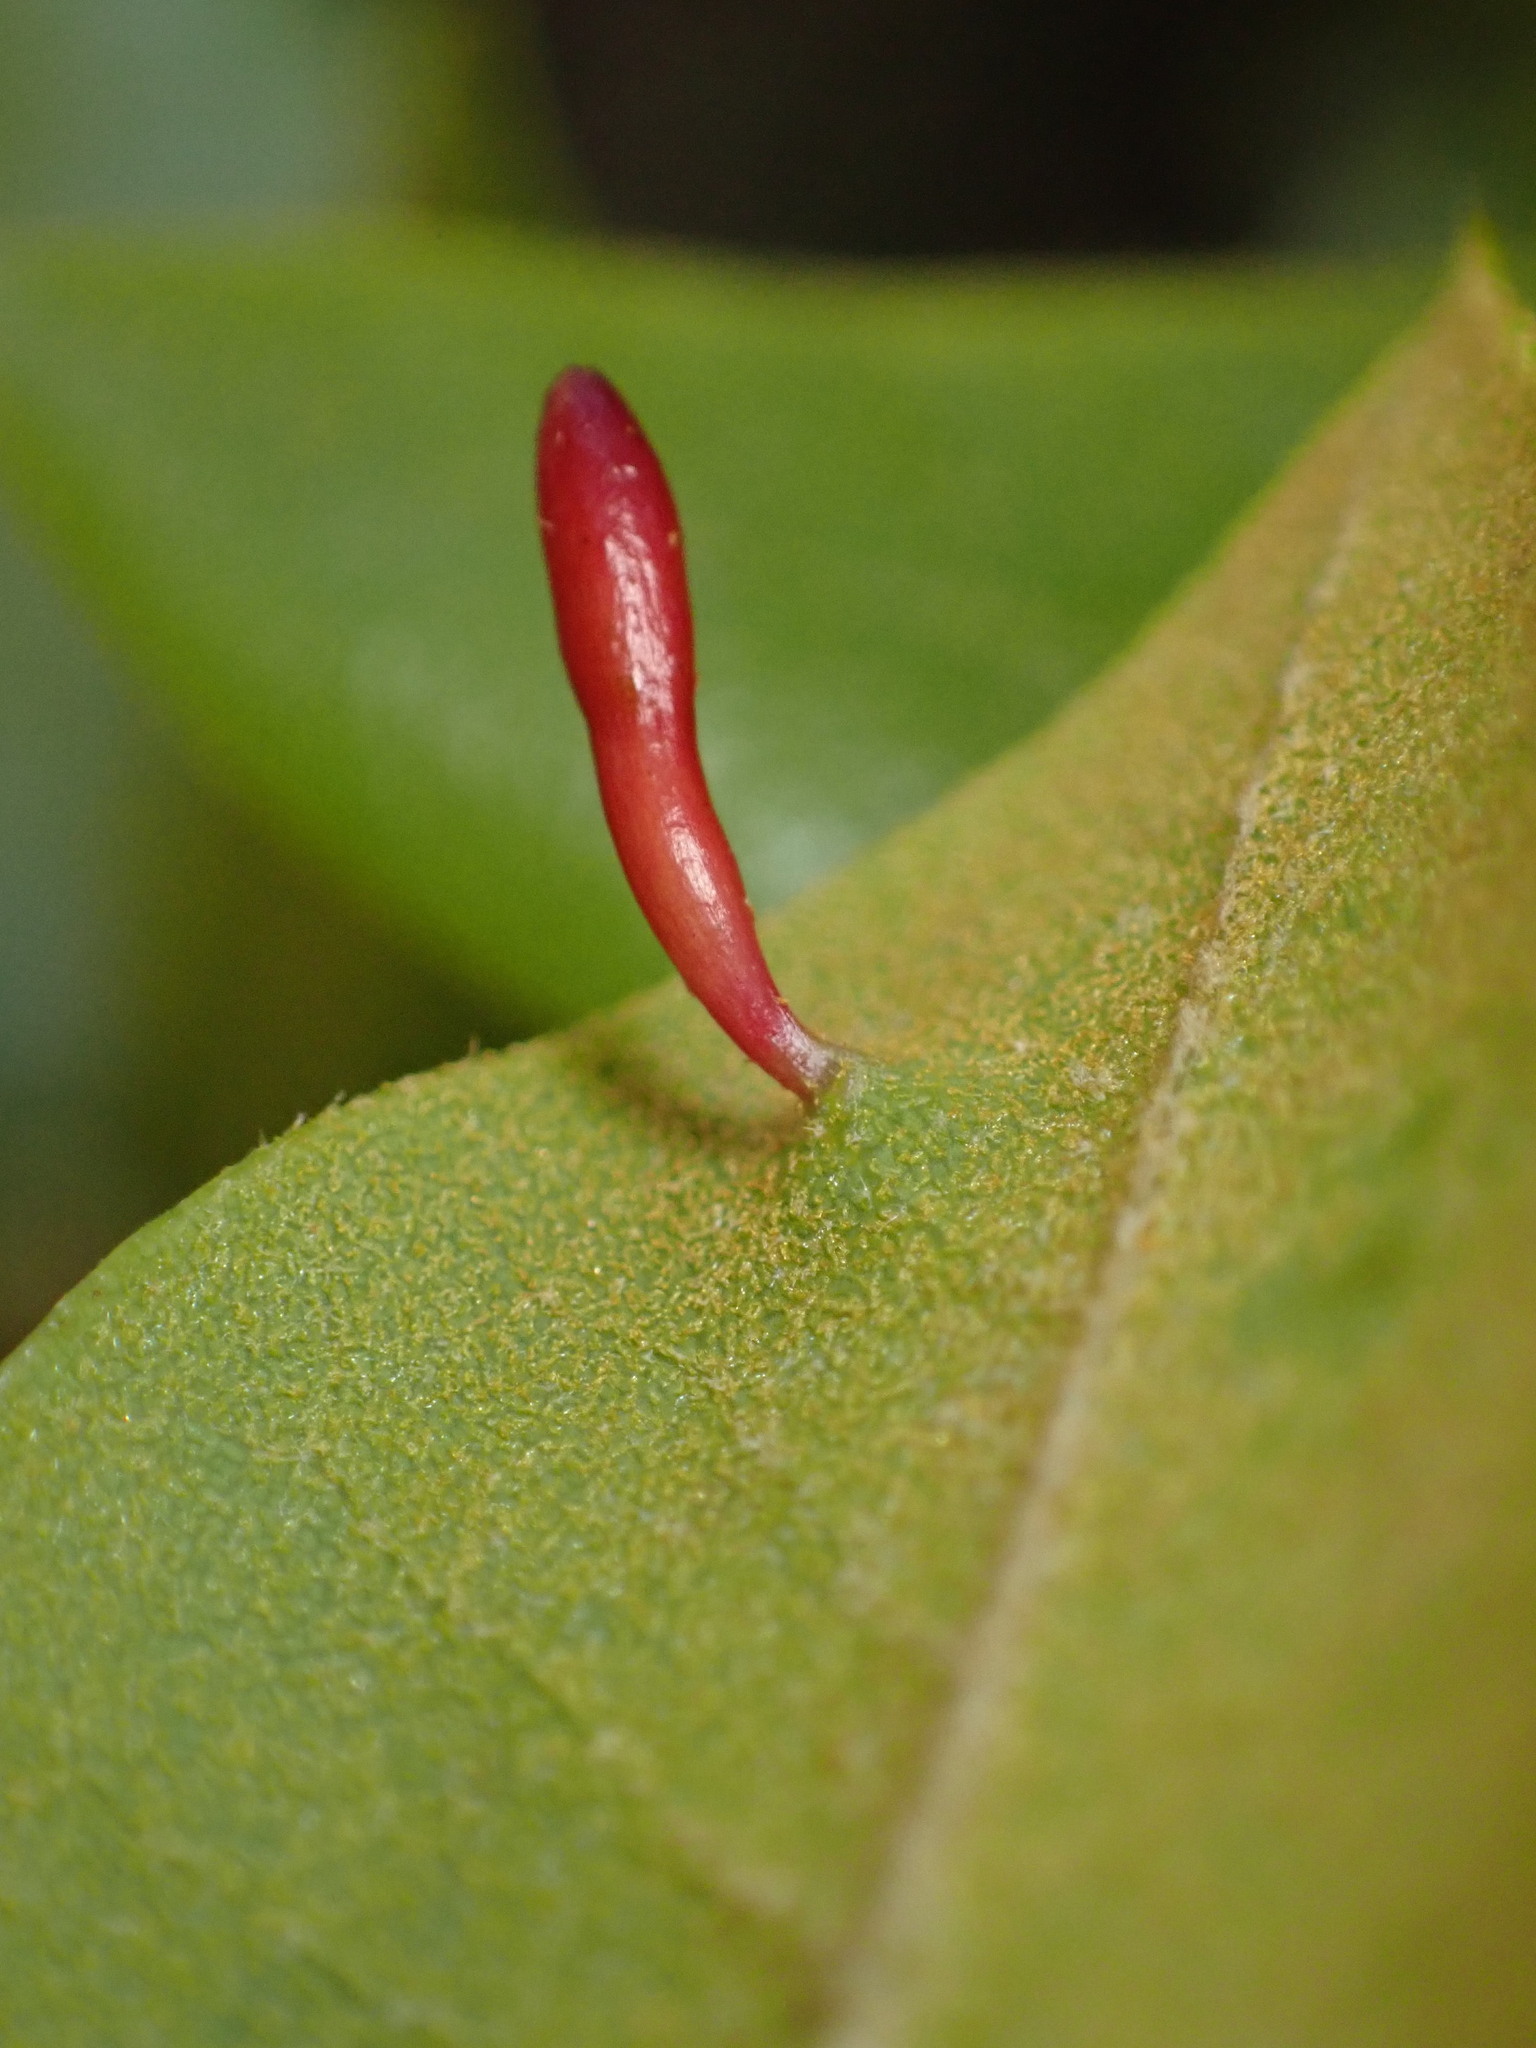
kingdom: Animalia
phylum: Arthropoda
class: Insecta
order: Hymenoptera
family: Cynipidae
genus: Heteroecus
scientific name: Heteroecus
